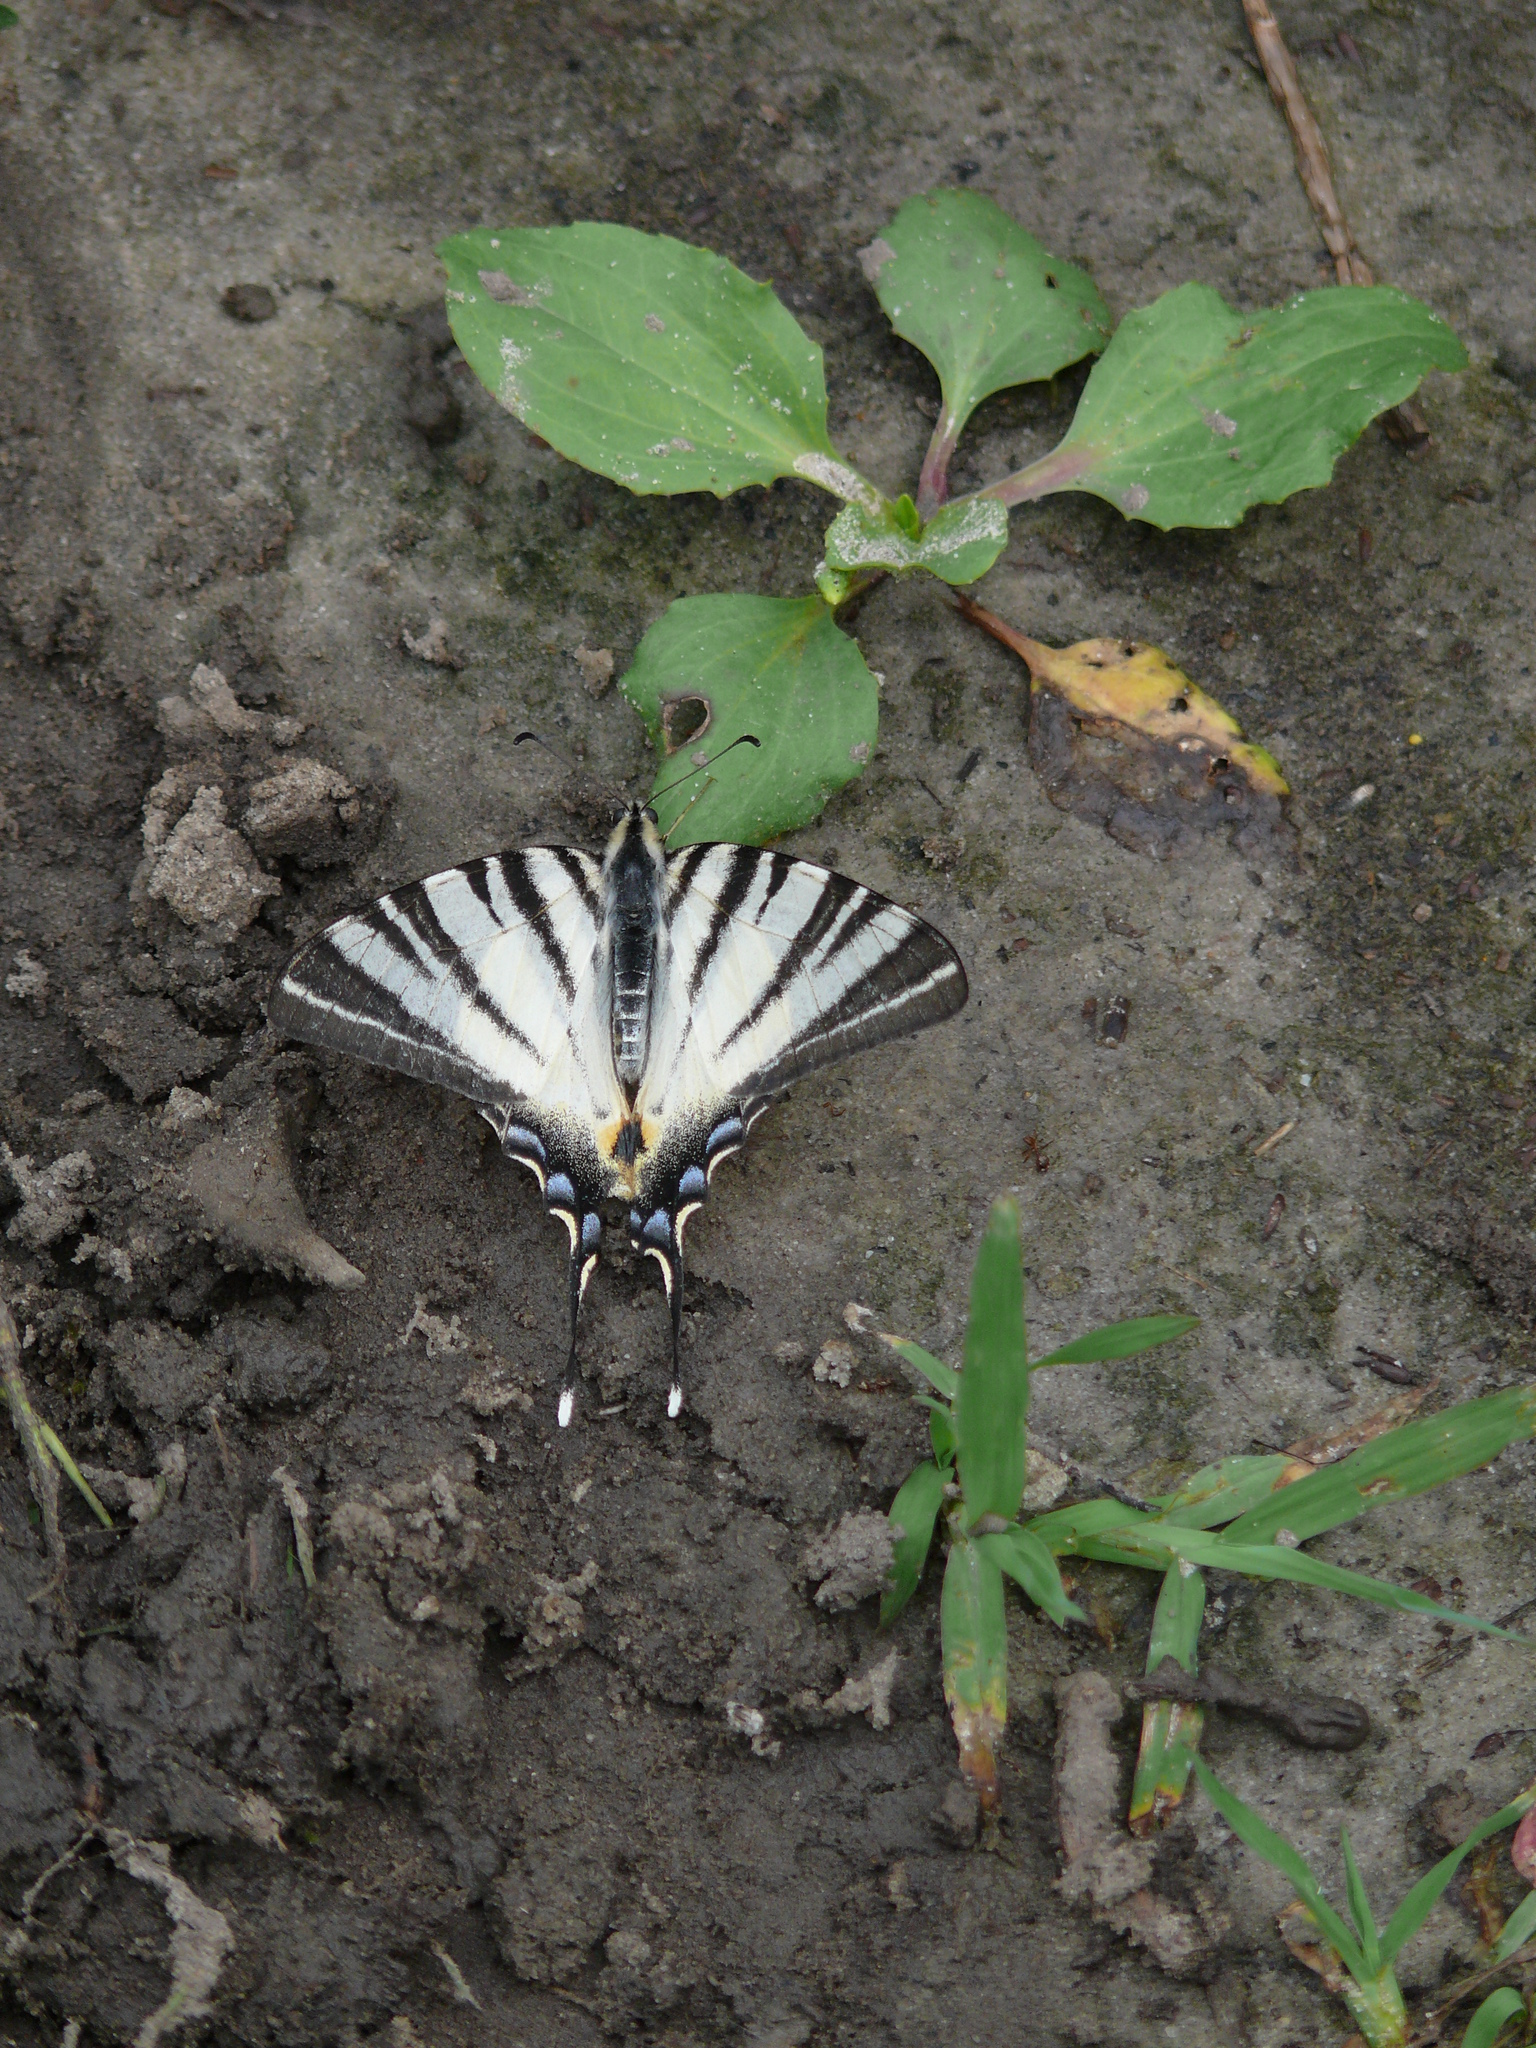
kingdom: Animalia
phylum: Arthropoda
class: Insecta
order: Lepidoptera
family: Papilionidae
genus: Iphiclides
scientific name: Iphiclides podalirius
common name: Scarce swallowtail
